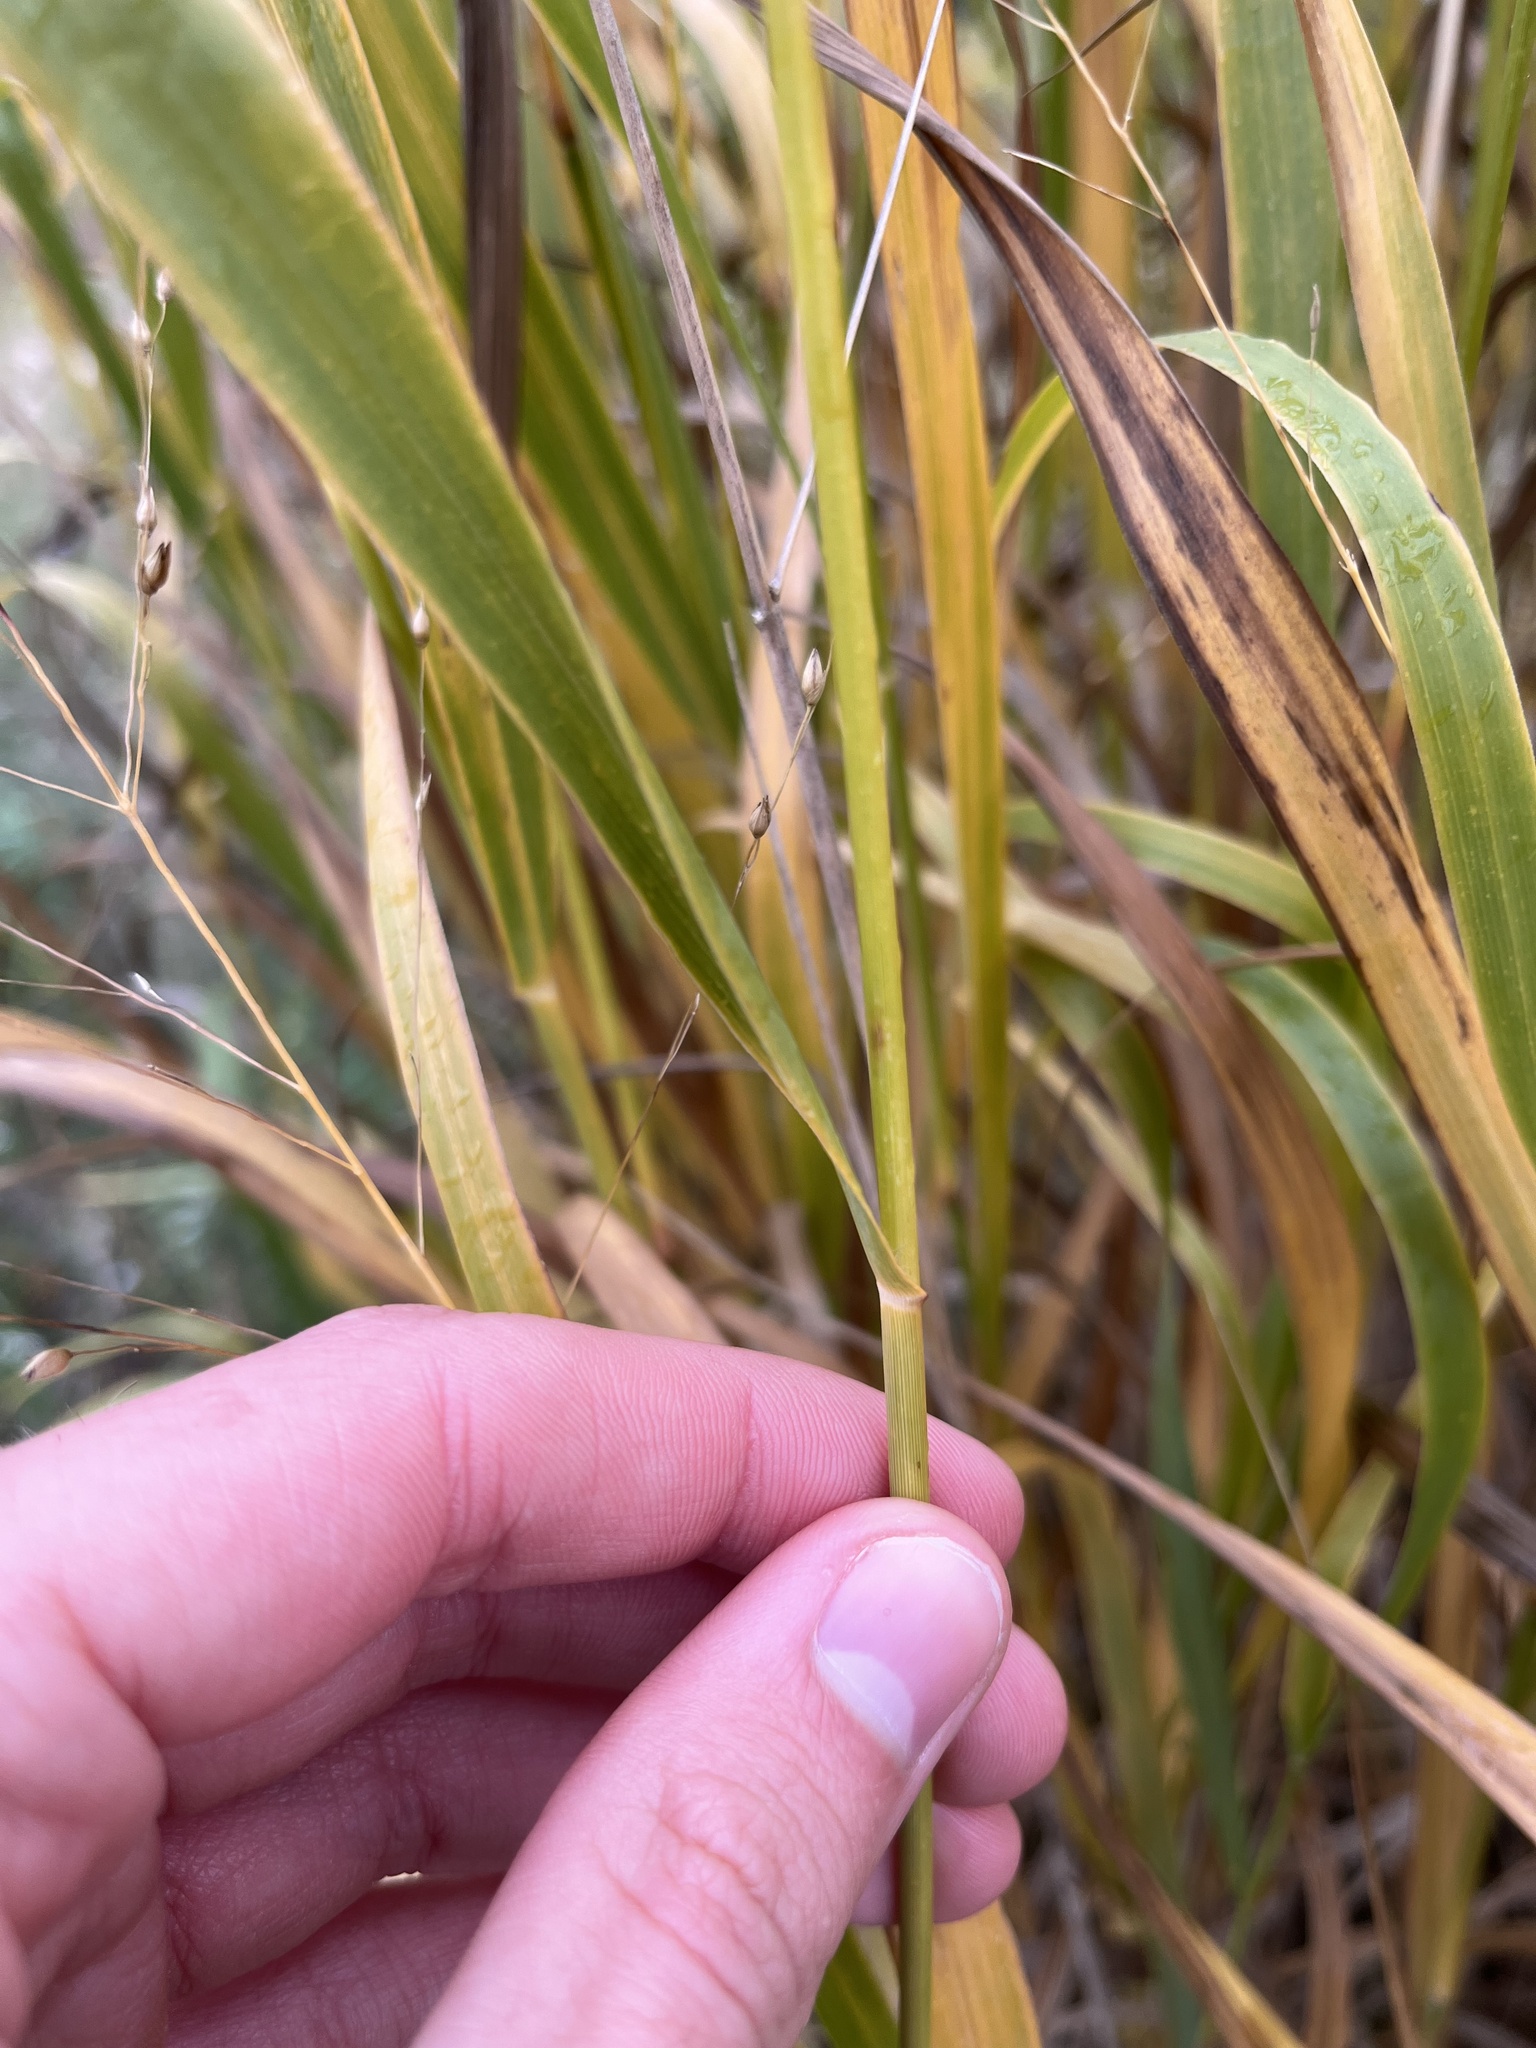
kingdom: Plantae
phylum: Tracheophyta
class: Liliopsida
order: Poales
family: Poaceae
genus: Panicum
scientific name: Panicum virgatum
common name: Switchgrass
